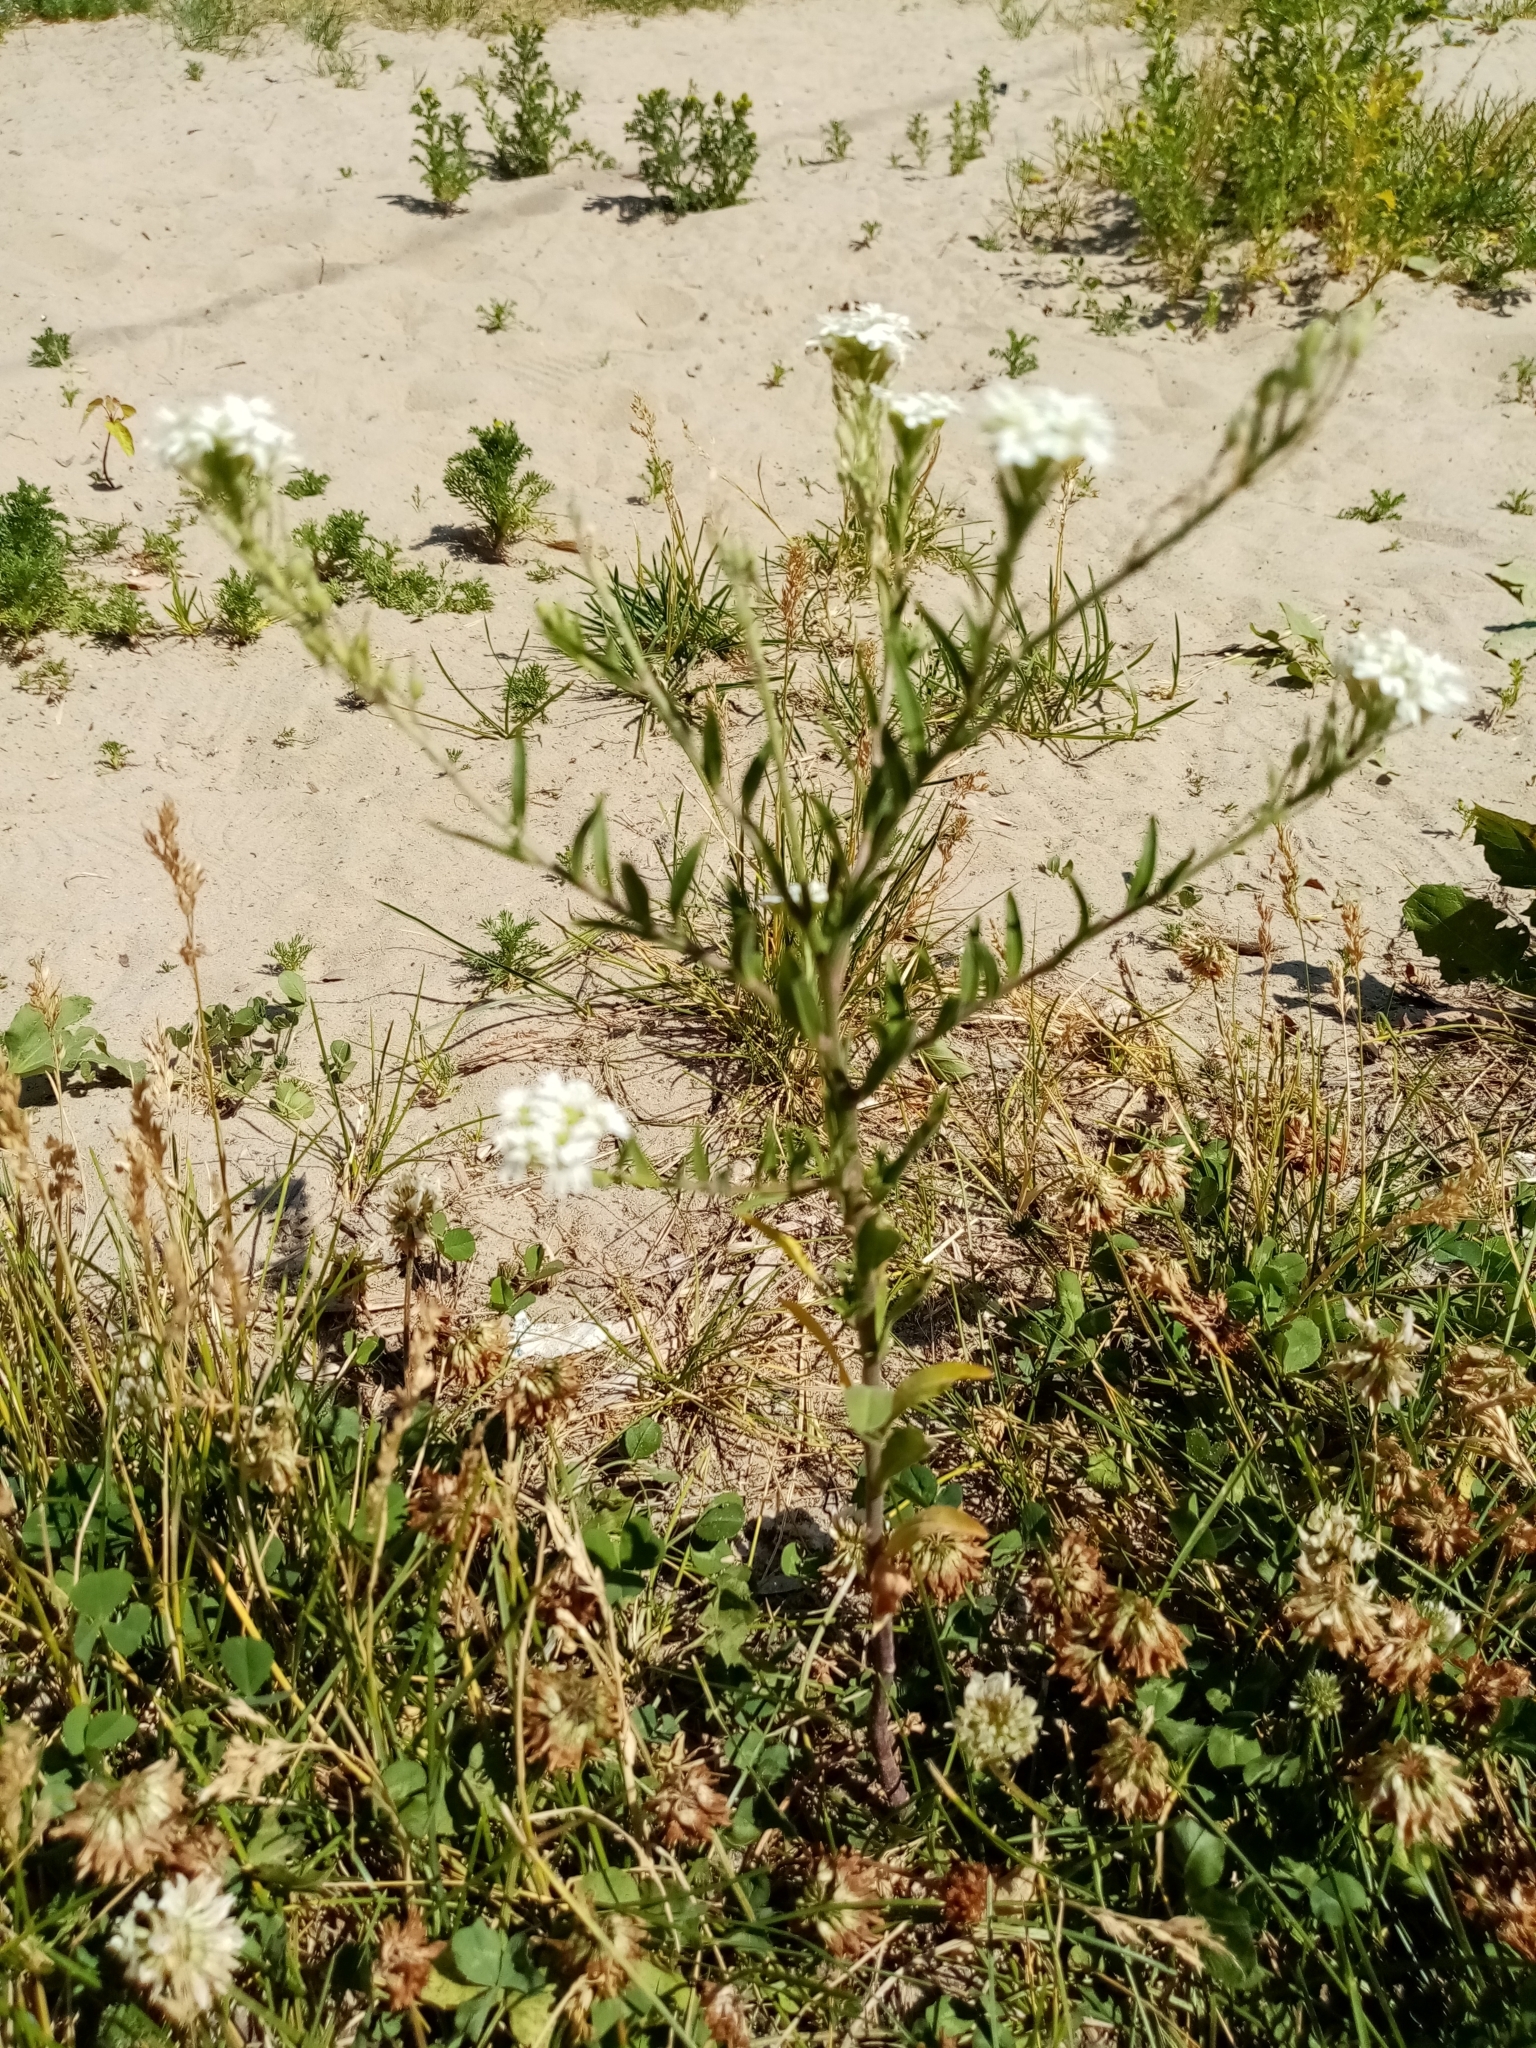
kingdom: Plantae
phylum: Tracheophyta
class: Magnoliopsida
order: Brassicales
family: Brassicaceae
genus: Berteroa
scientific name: Berteroa incana
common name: Hoary alison
